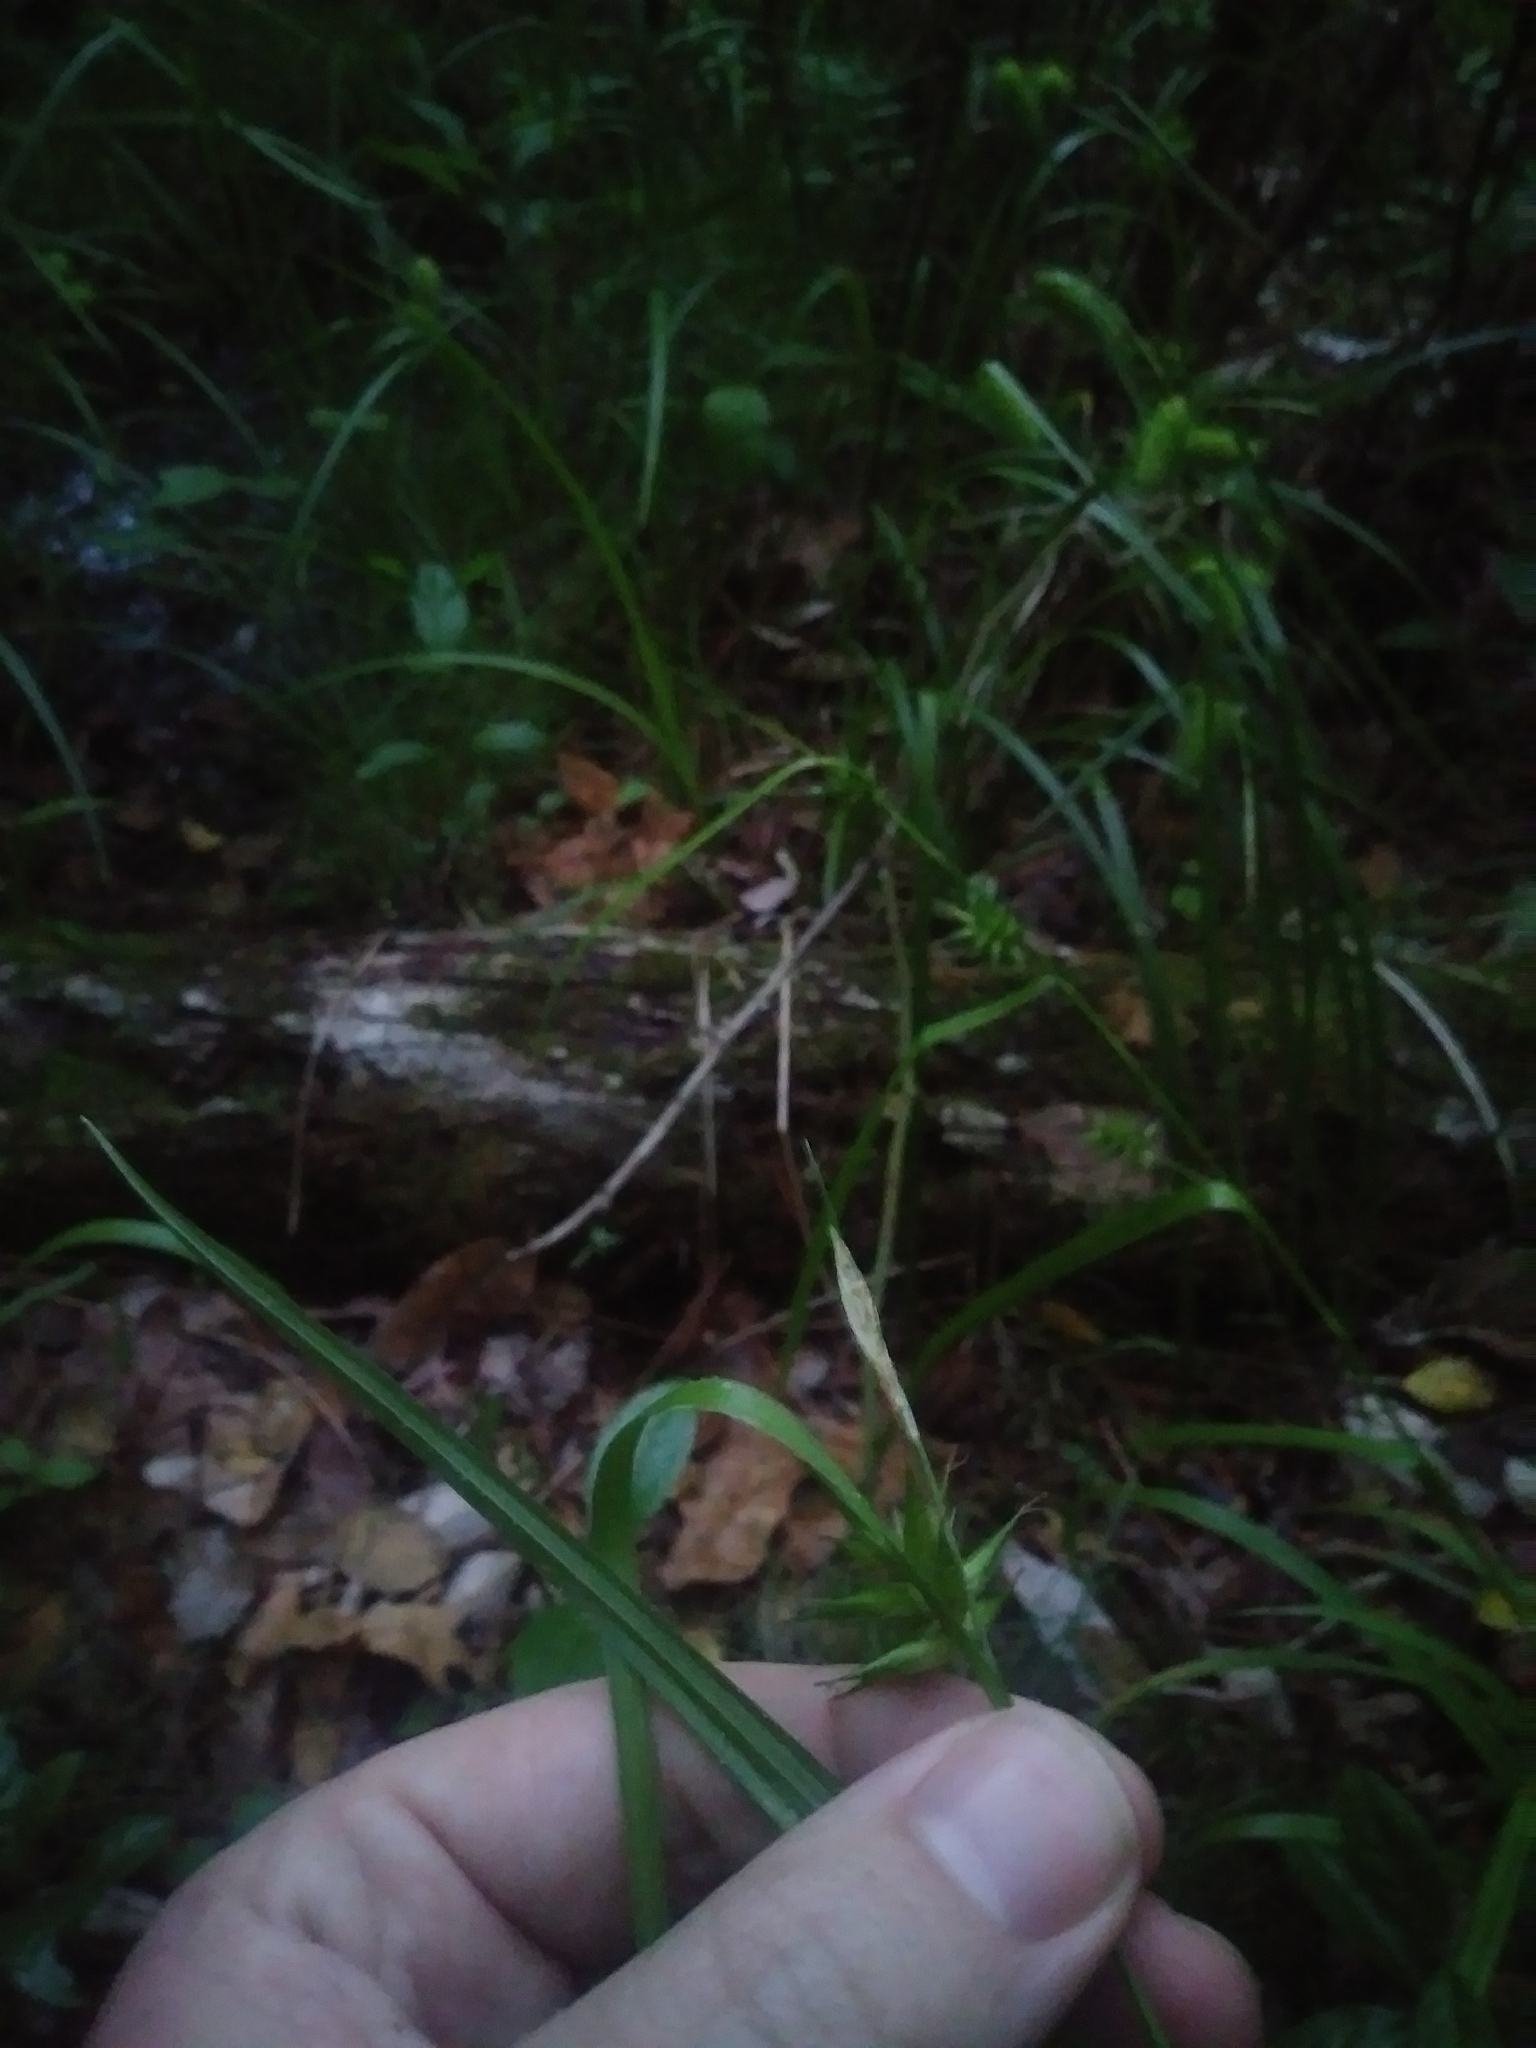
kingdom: Plantae
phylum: Tracheophyta
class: Liliopsida
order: Poales
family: Cyperaceae
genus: Carex
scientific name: Carex folliculata
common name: Northern long sedge
